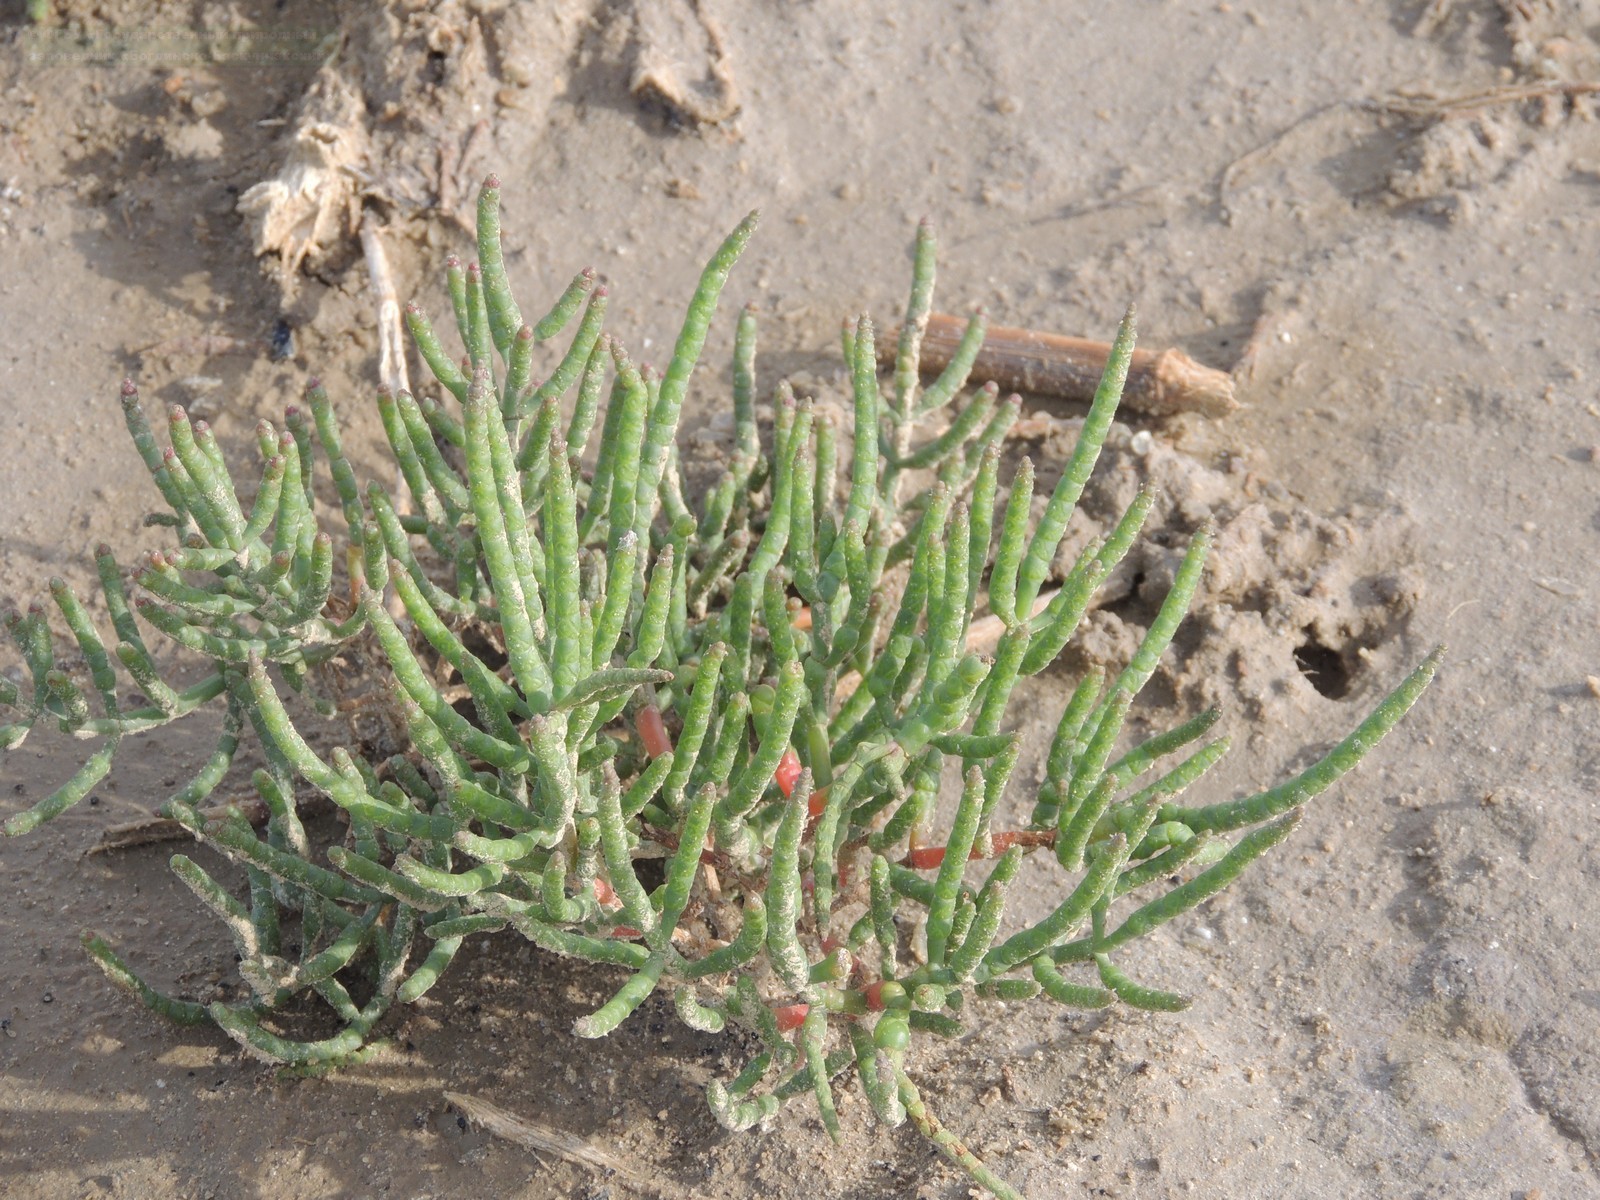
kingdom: Plantae
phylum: Tracheophyta
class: Magnoliopsida
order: Caryophyllales
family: Amaranthaceae
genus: Salicornia
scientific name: Salicornia perennans
